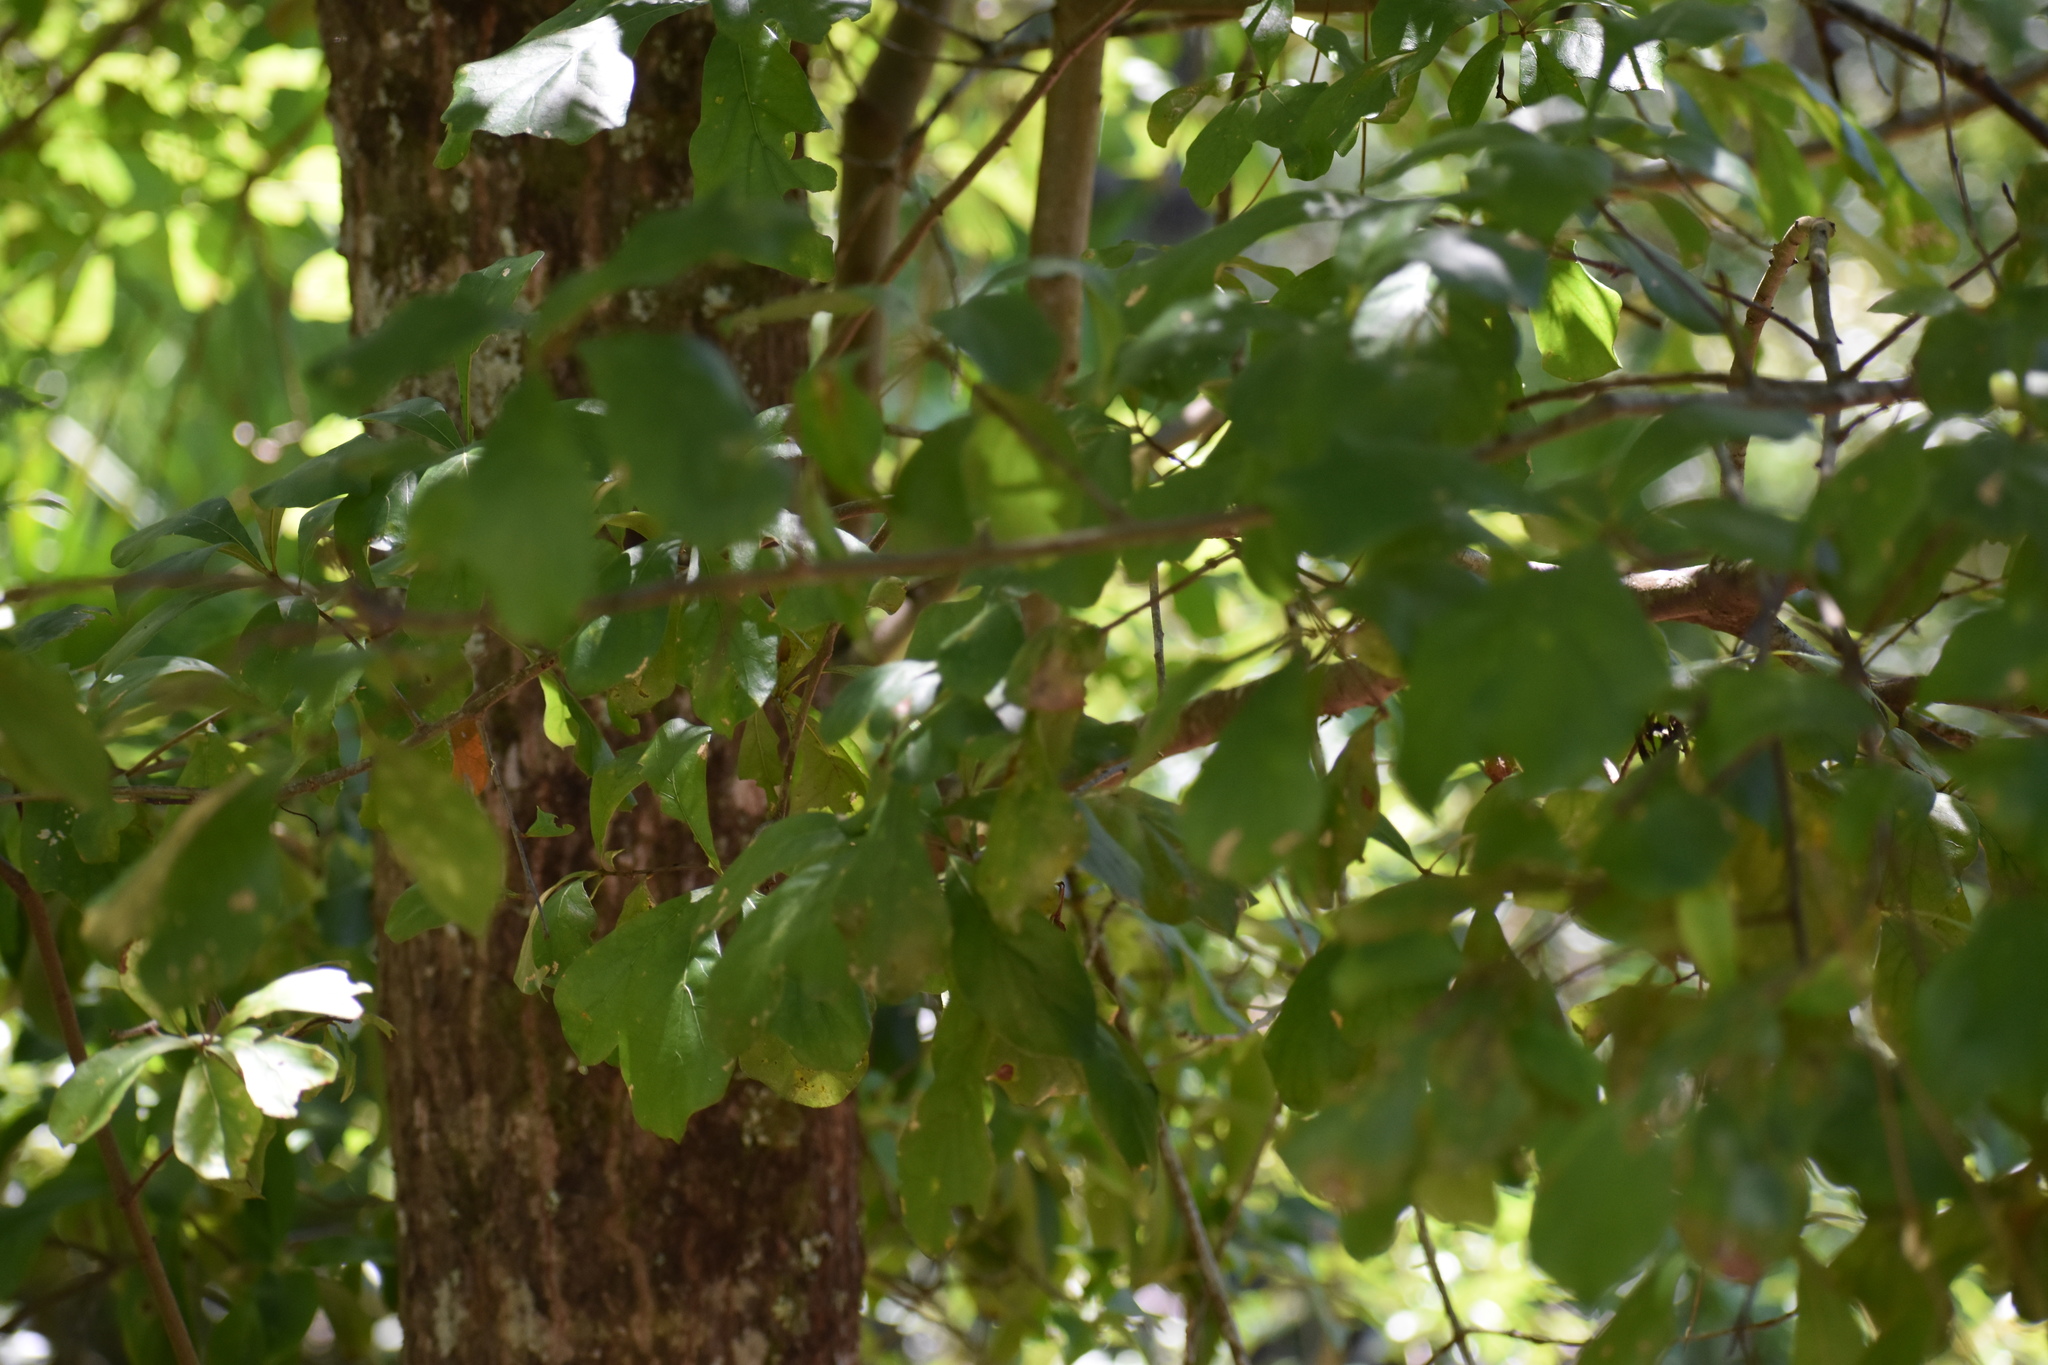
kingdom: Plantae
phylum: Tracheophyta
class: Magnoliopsida
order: Fagales
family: Fagaceae
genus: Quercus
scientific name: Quercus nigra
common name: Water oak
